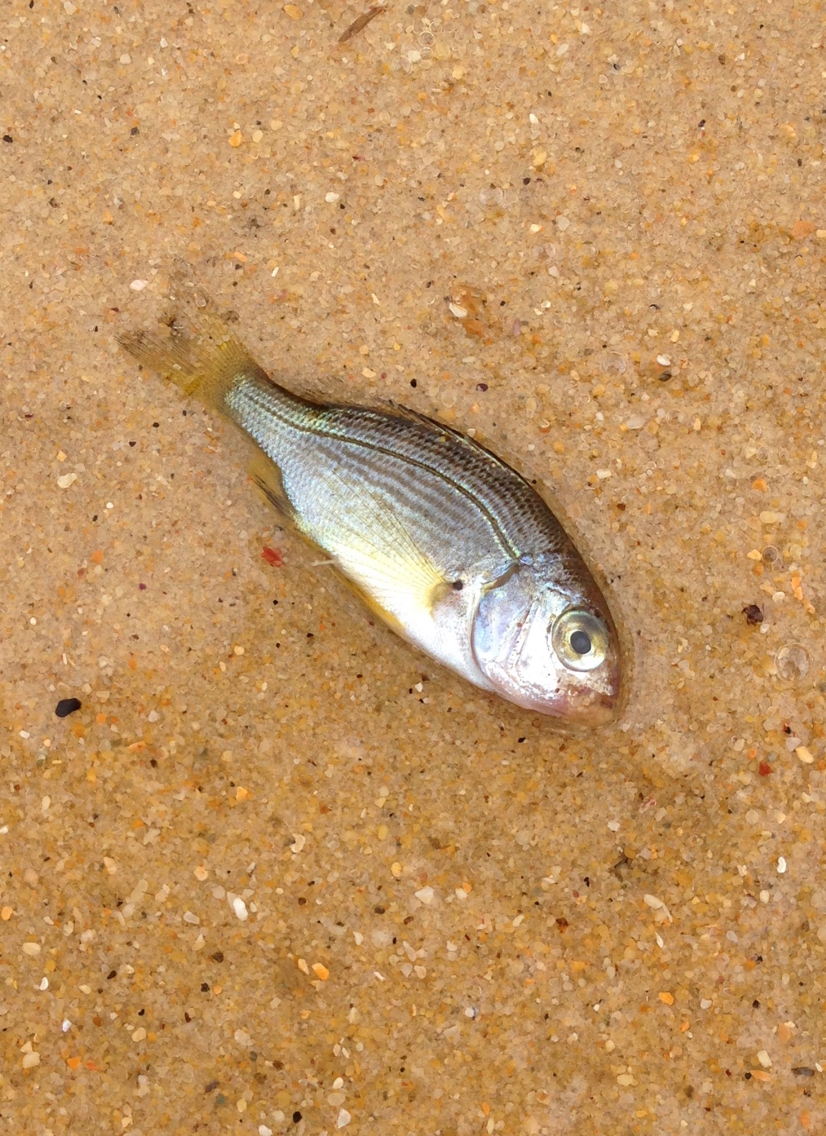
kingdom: Animalia
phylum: Chordata
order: Perciformes
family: Sparidae
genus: Acanthopagrus
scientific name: Acanthopagrus butcheri
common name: Black bream
